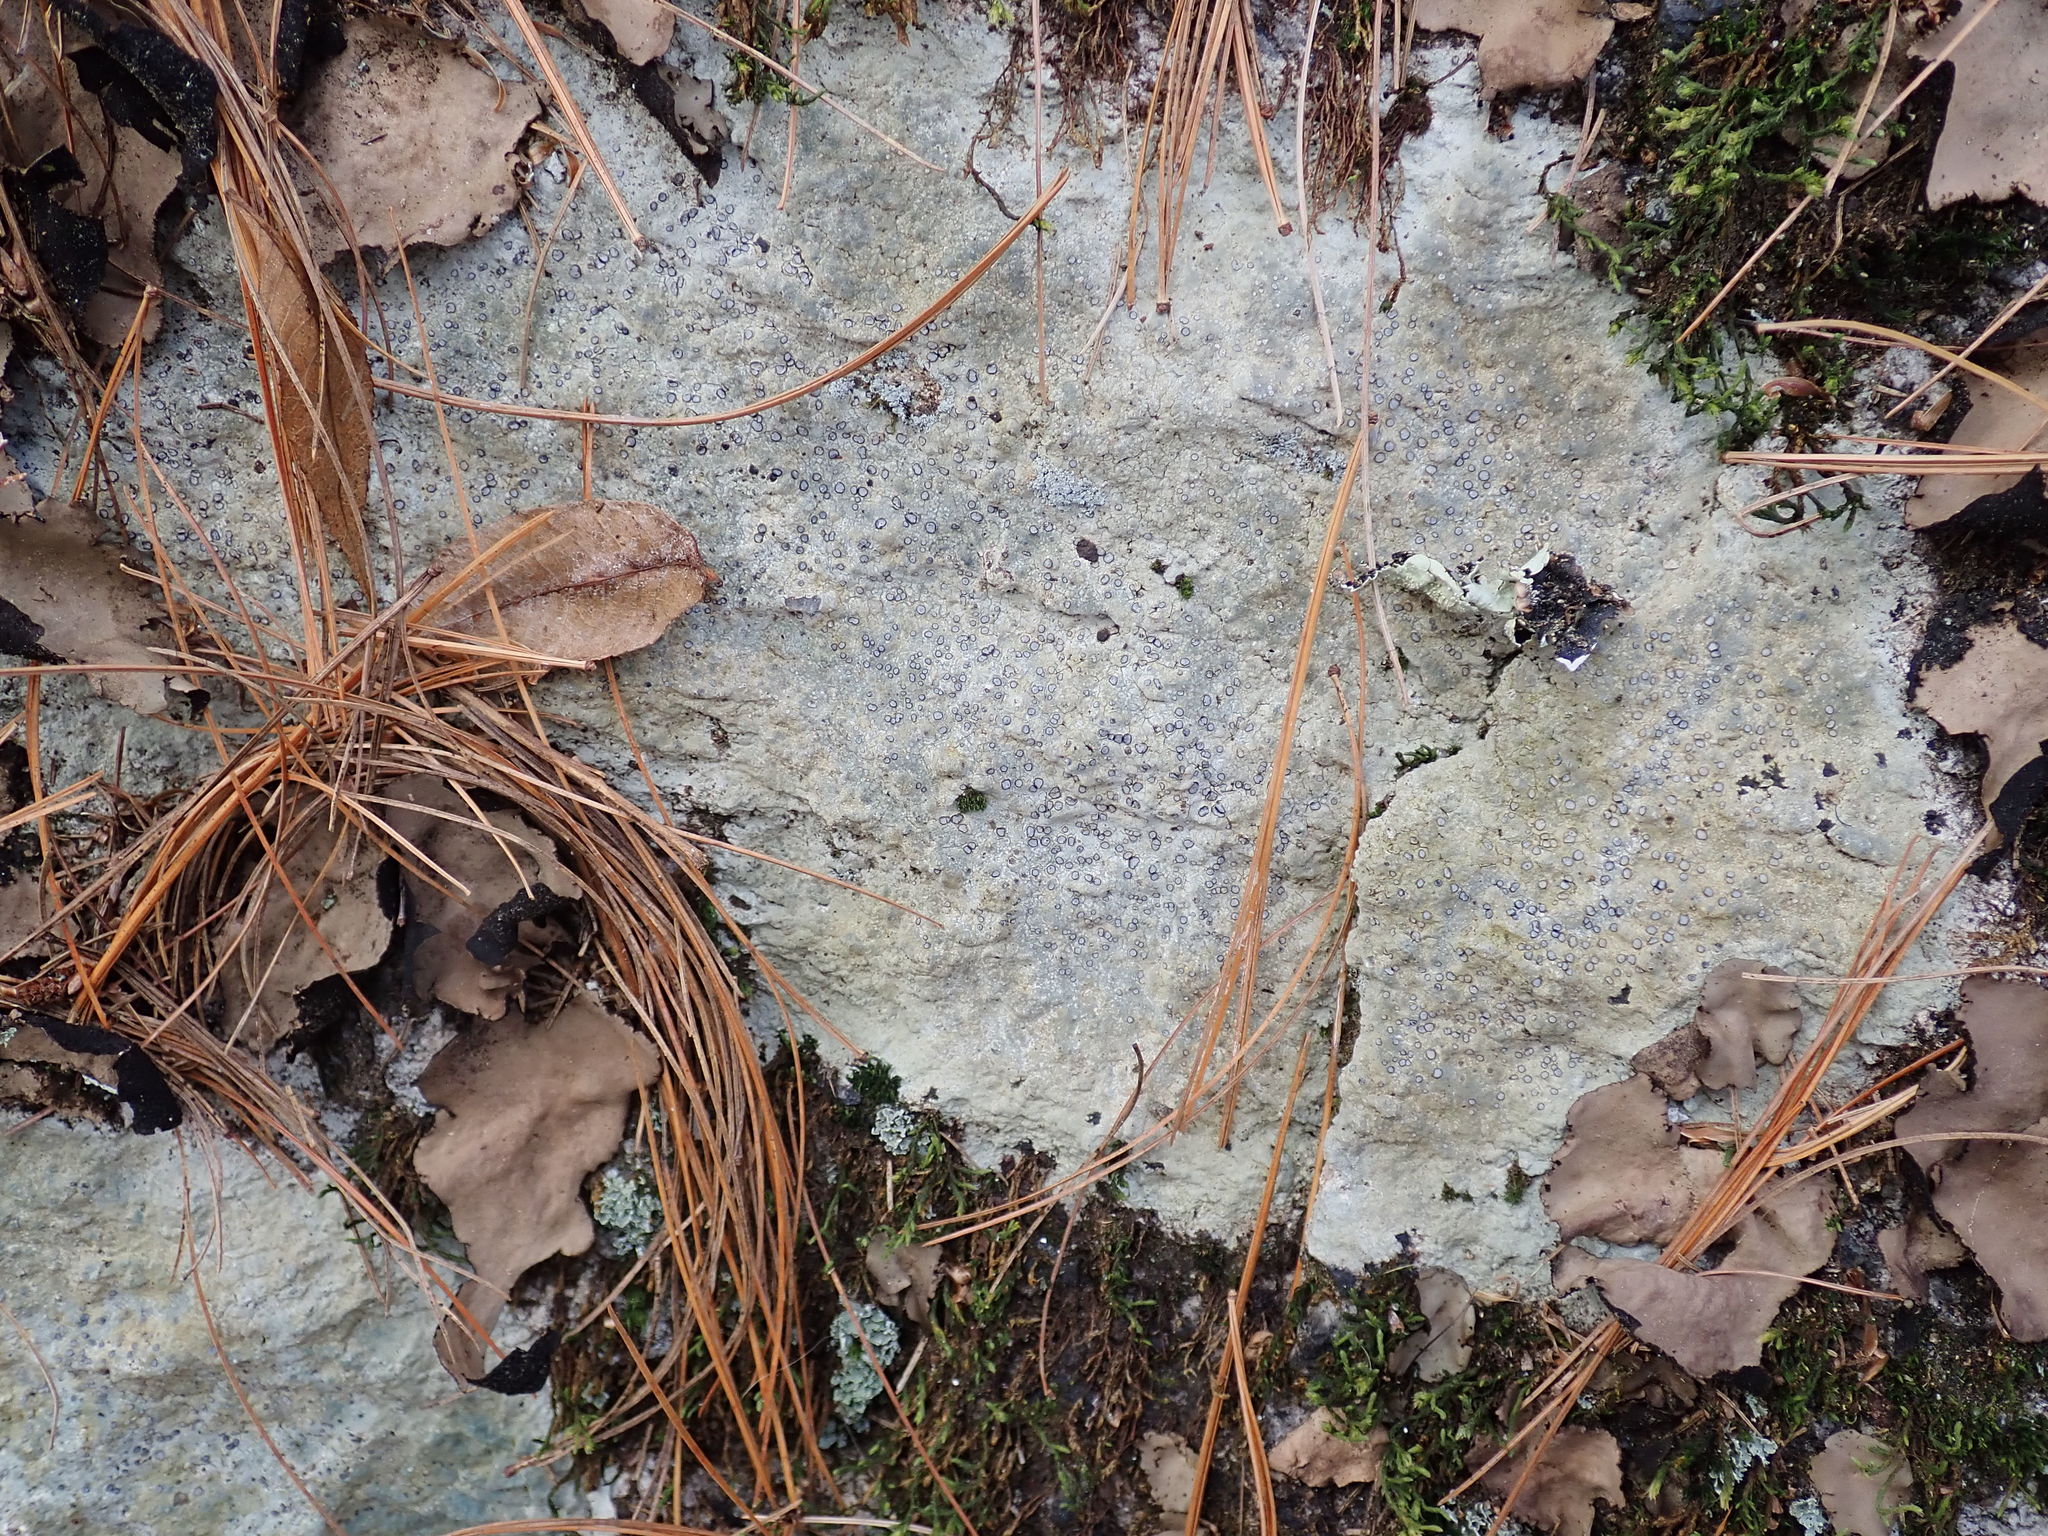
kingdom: Fungi
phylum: Ascomycota
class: Lecanoromycetes
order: Lecideales
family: Lecideaceae
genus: Porpidia
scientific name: Porpidia albocaerulescens
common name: Smokey-eyed boulder lichen
